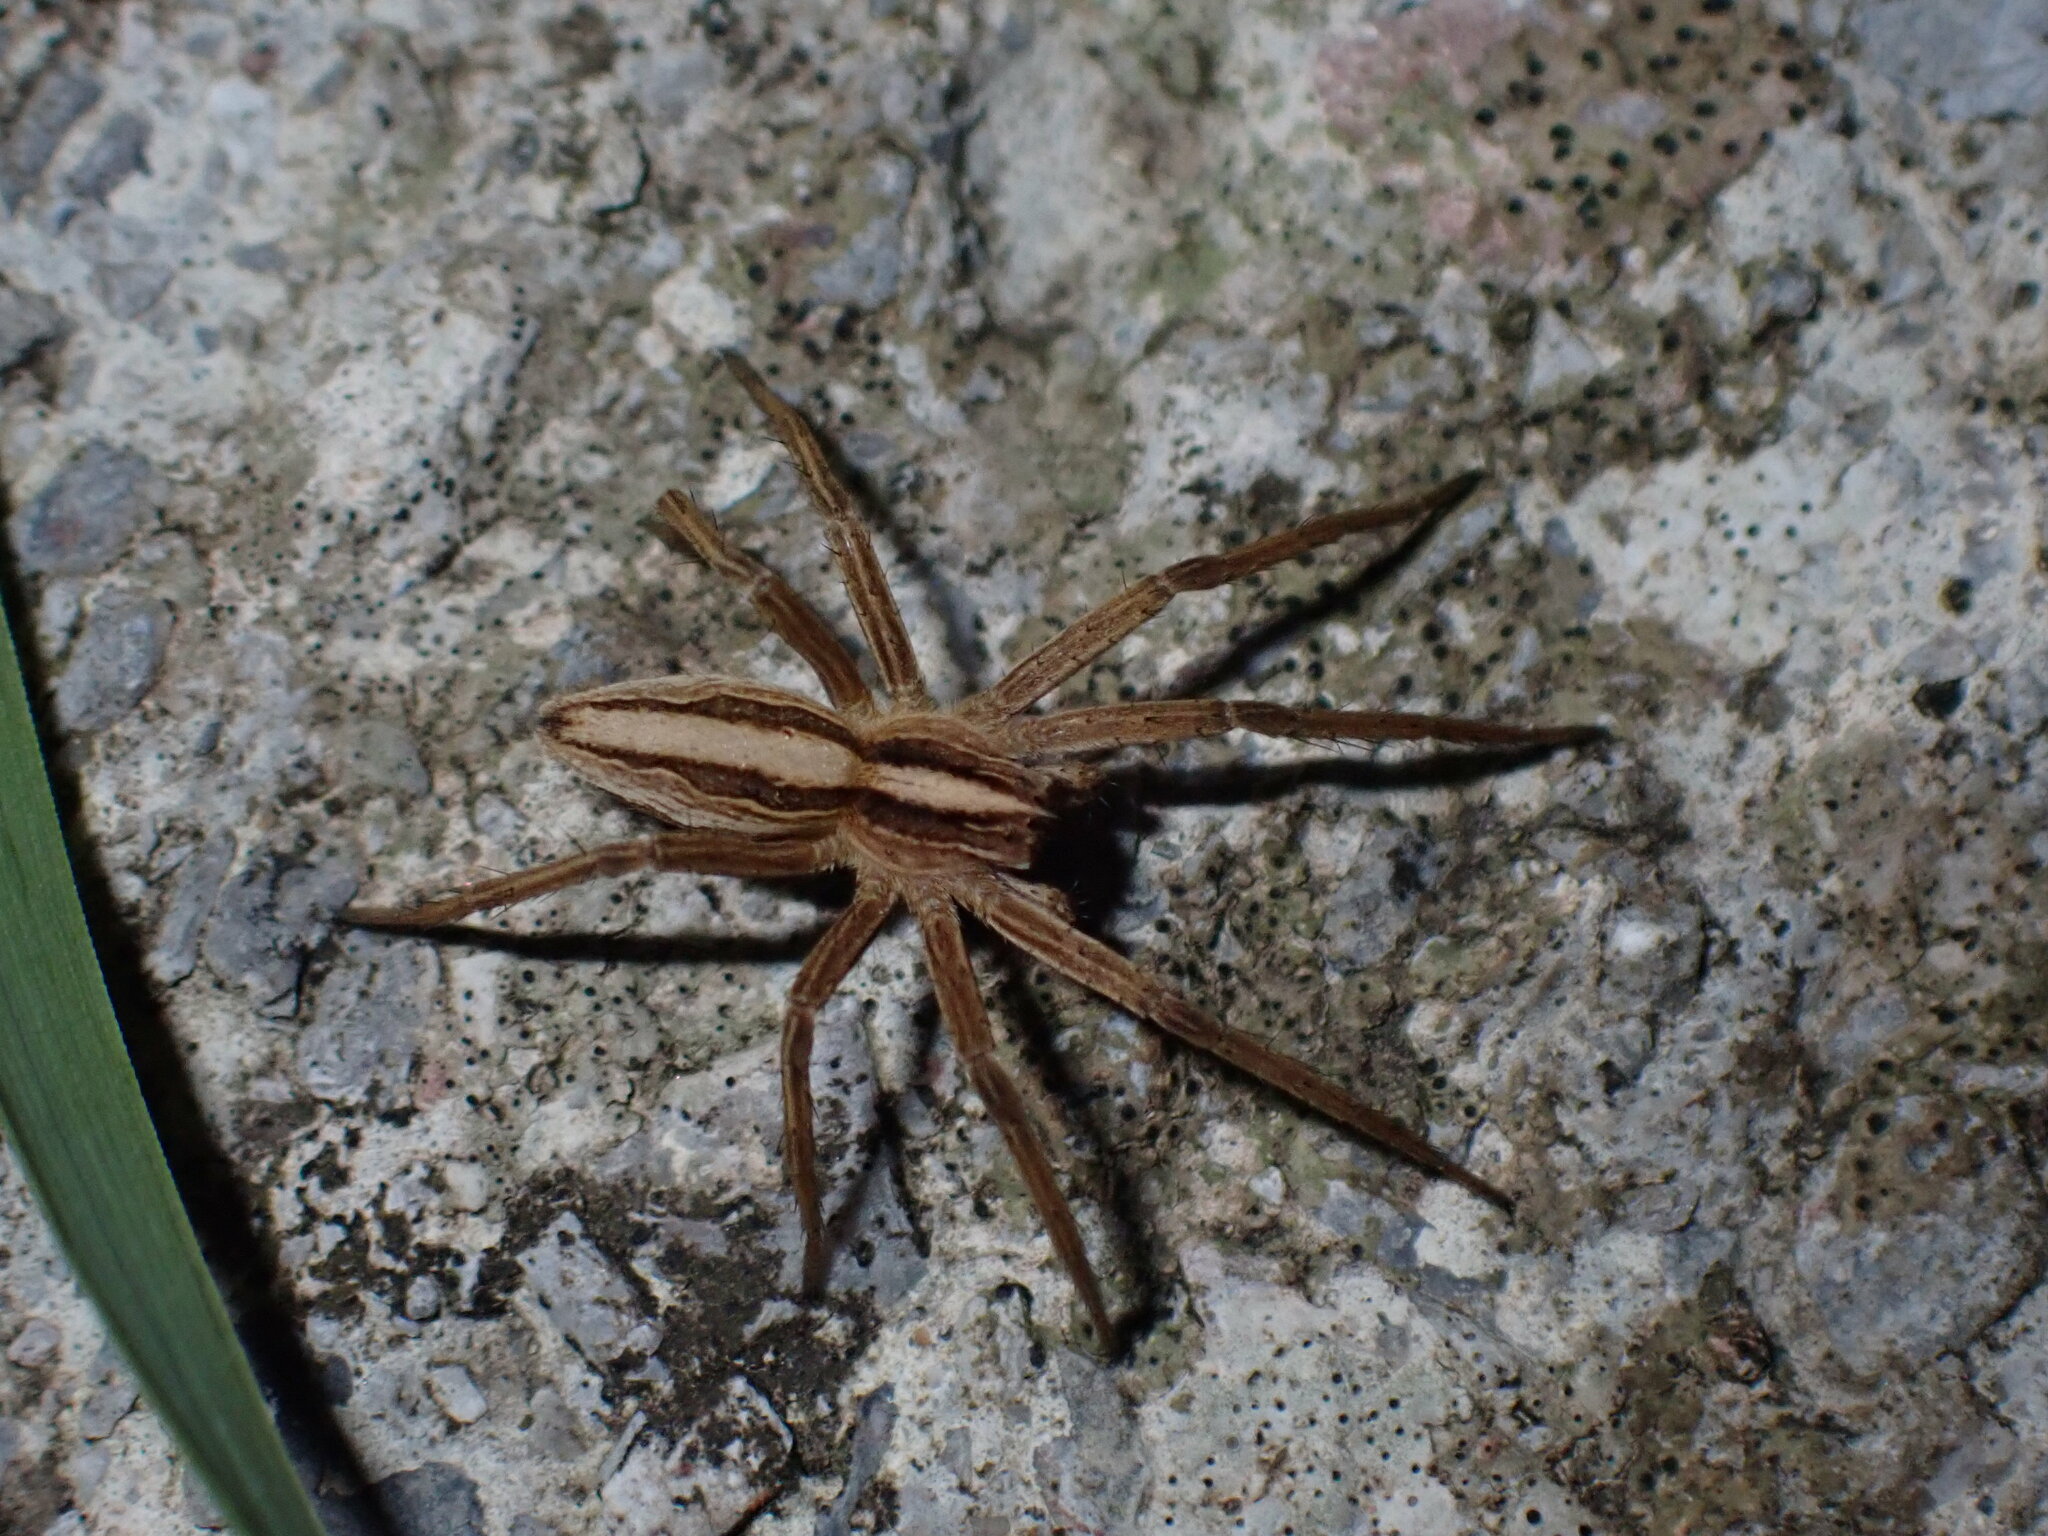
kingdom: Animalia
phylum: Arthropoda
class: Arachnida
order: Araneae
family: Pisauridae
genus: Pisaura
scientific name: Pisaura mirabilis
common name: Tent spider
